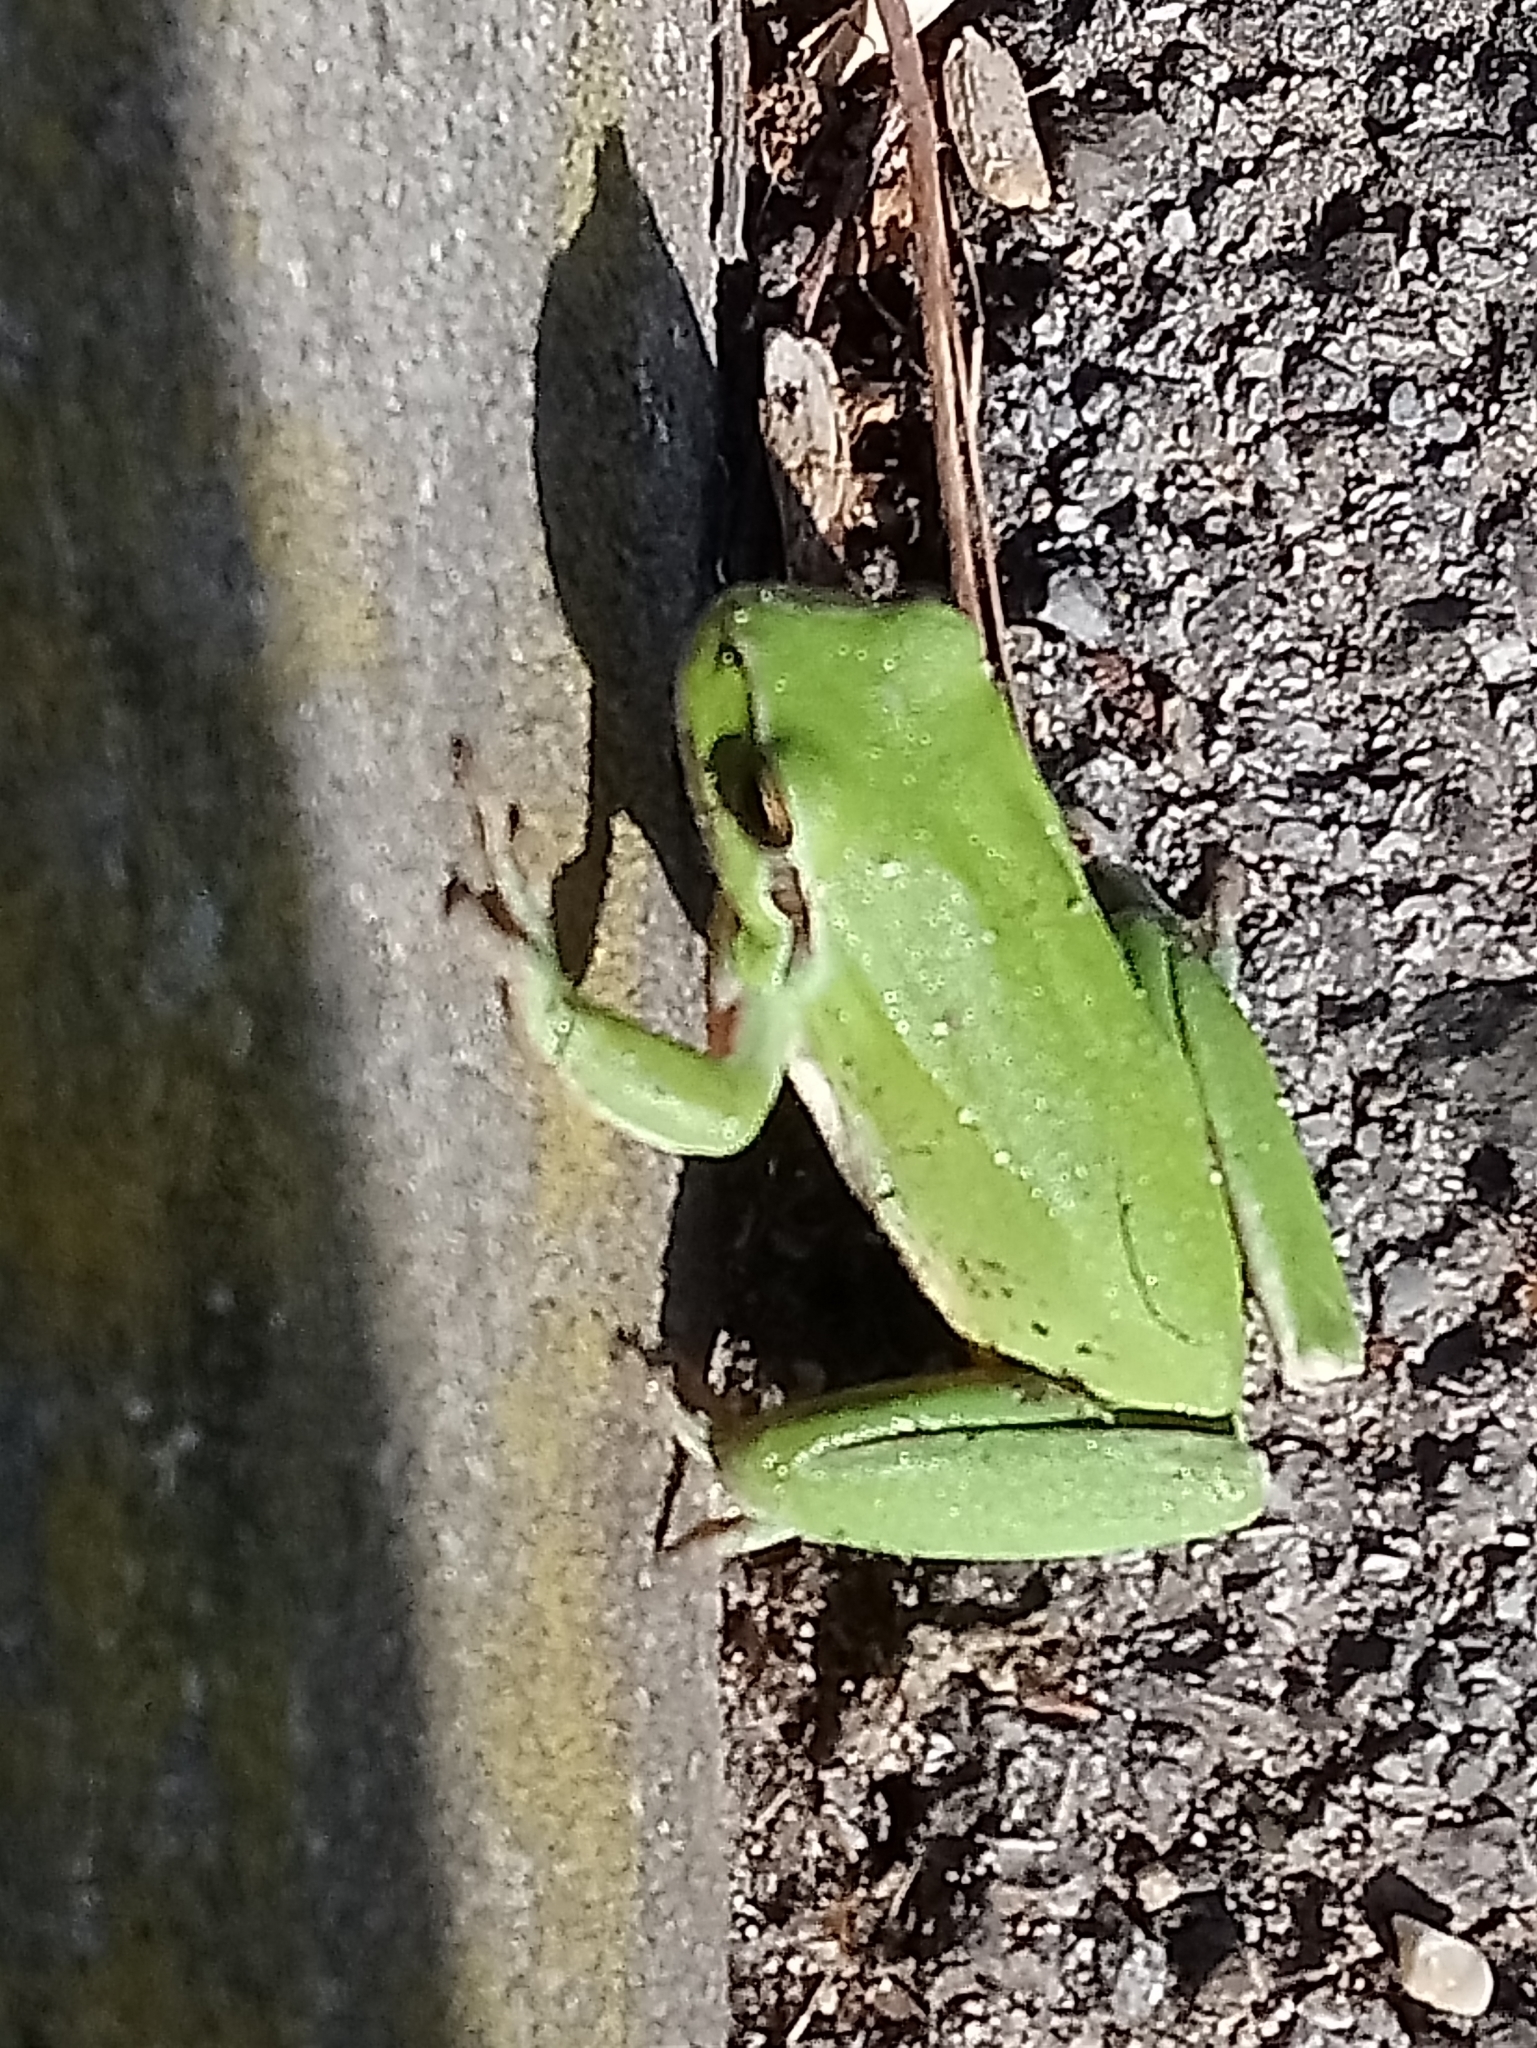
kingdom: Animalia
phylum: Chordata
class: Amphibia
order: Anura
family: Hylidae
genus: Hyla
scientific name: Hyla meridionalis
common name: Stripeless tree frog
